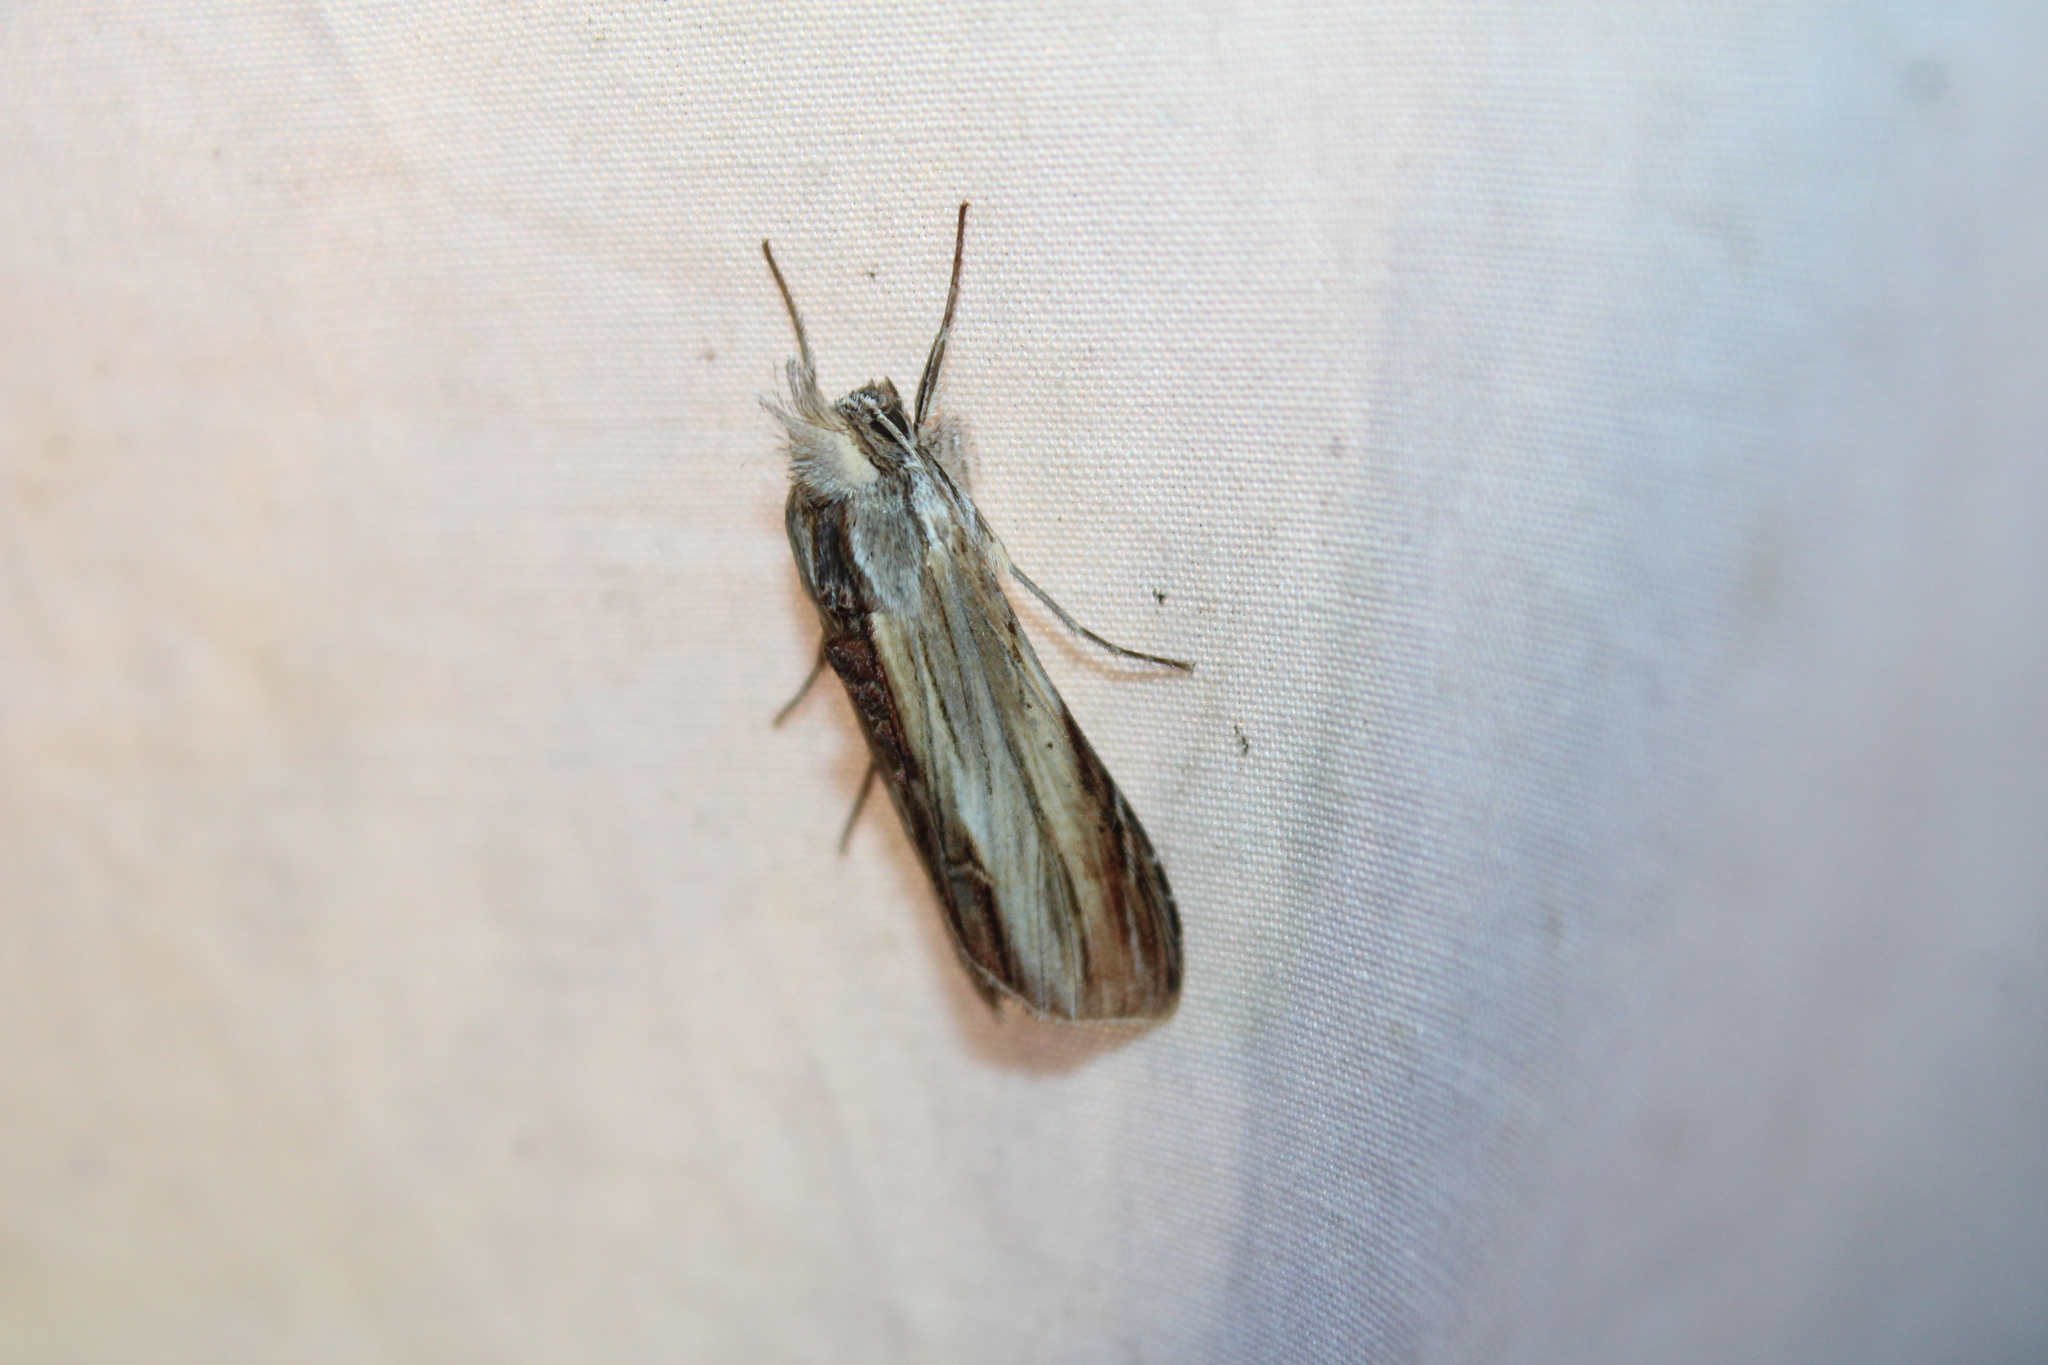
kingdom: Animalia
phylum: Arthropoda
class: Insecta
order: Lepidoptera
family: Noctuidae
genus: Cucullia
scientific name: Cucullia convexipennis
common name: Brown-hooded owlet
